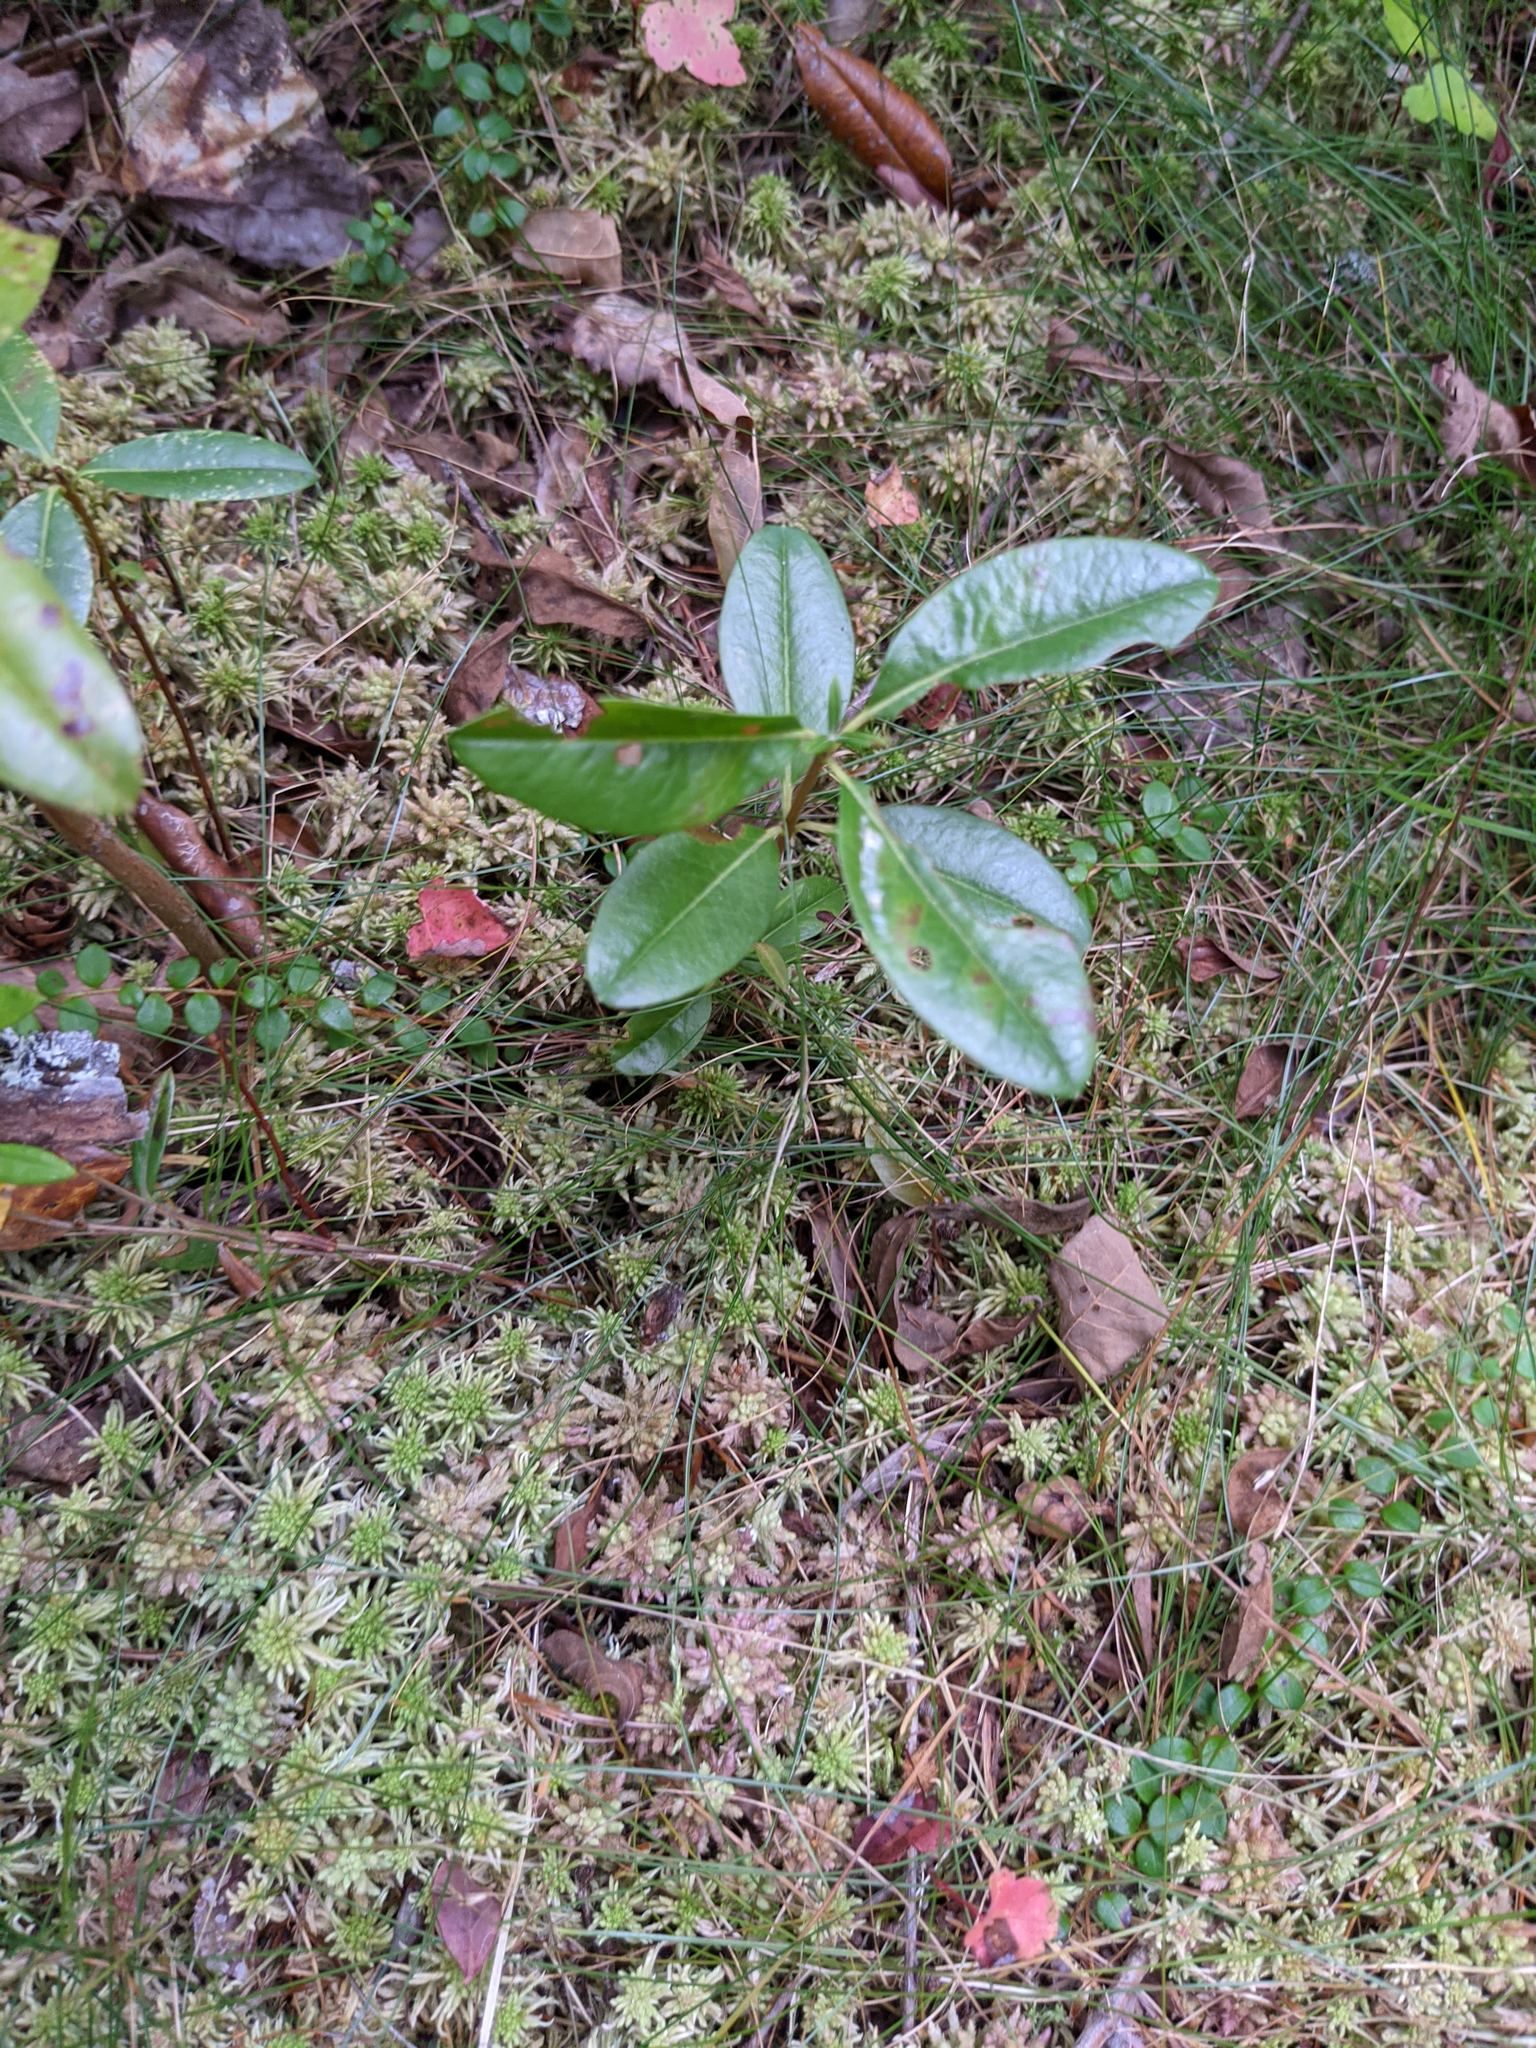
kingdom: Plantae
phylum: Tracheophyta
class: Magnoliopsida
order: Ericales
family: Ericaceae
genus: Kalmia
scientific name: Kalmia angustifolia
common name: Sheep-laurel
